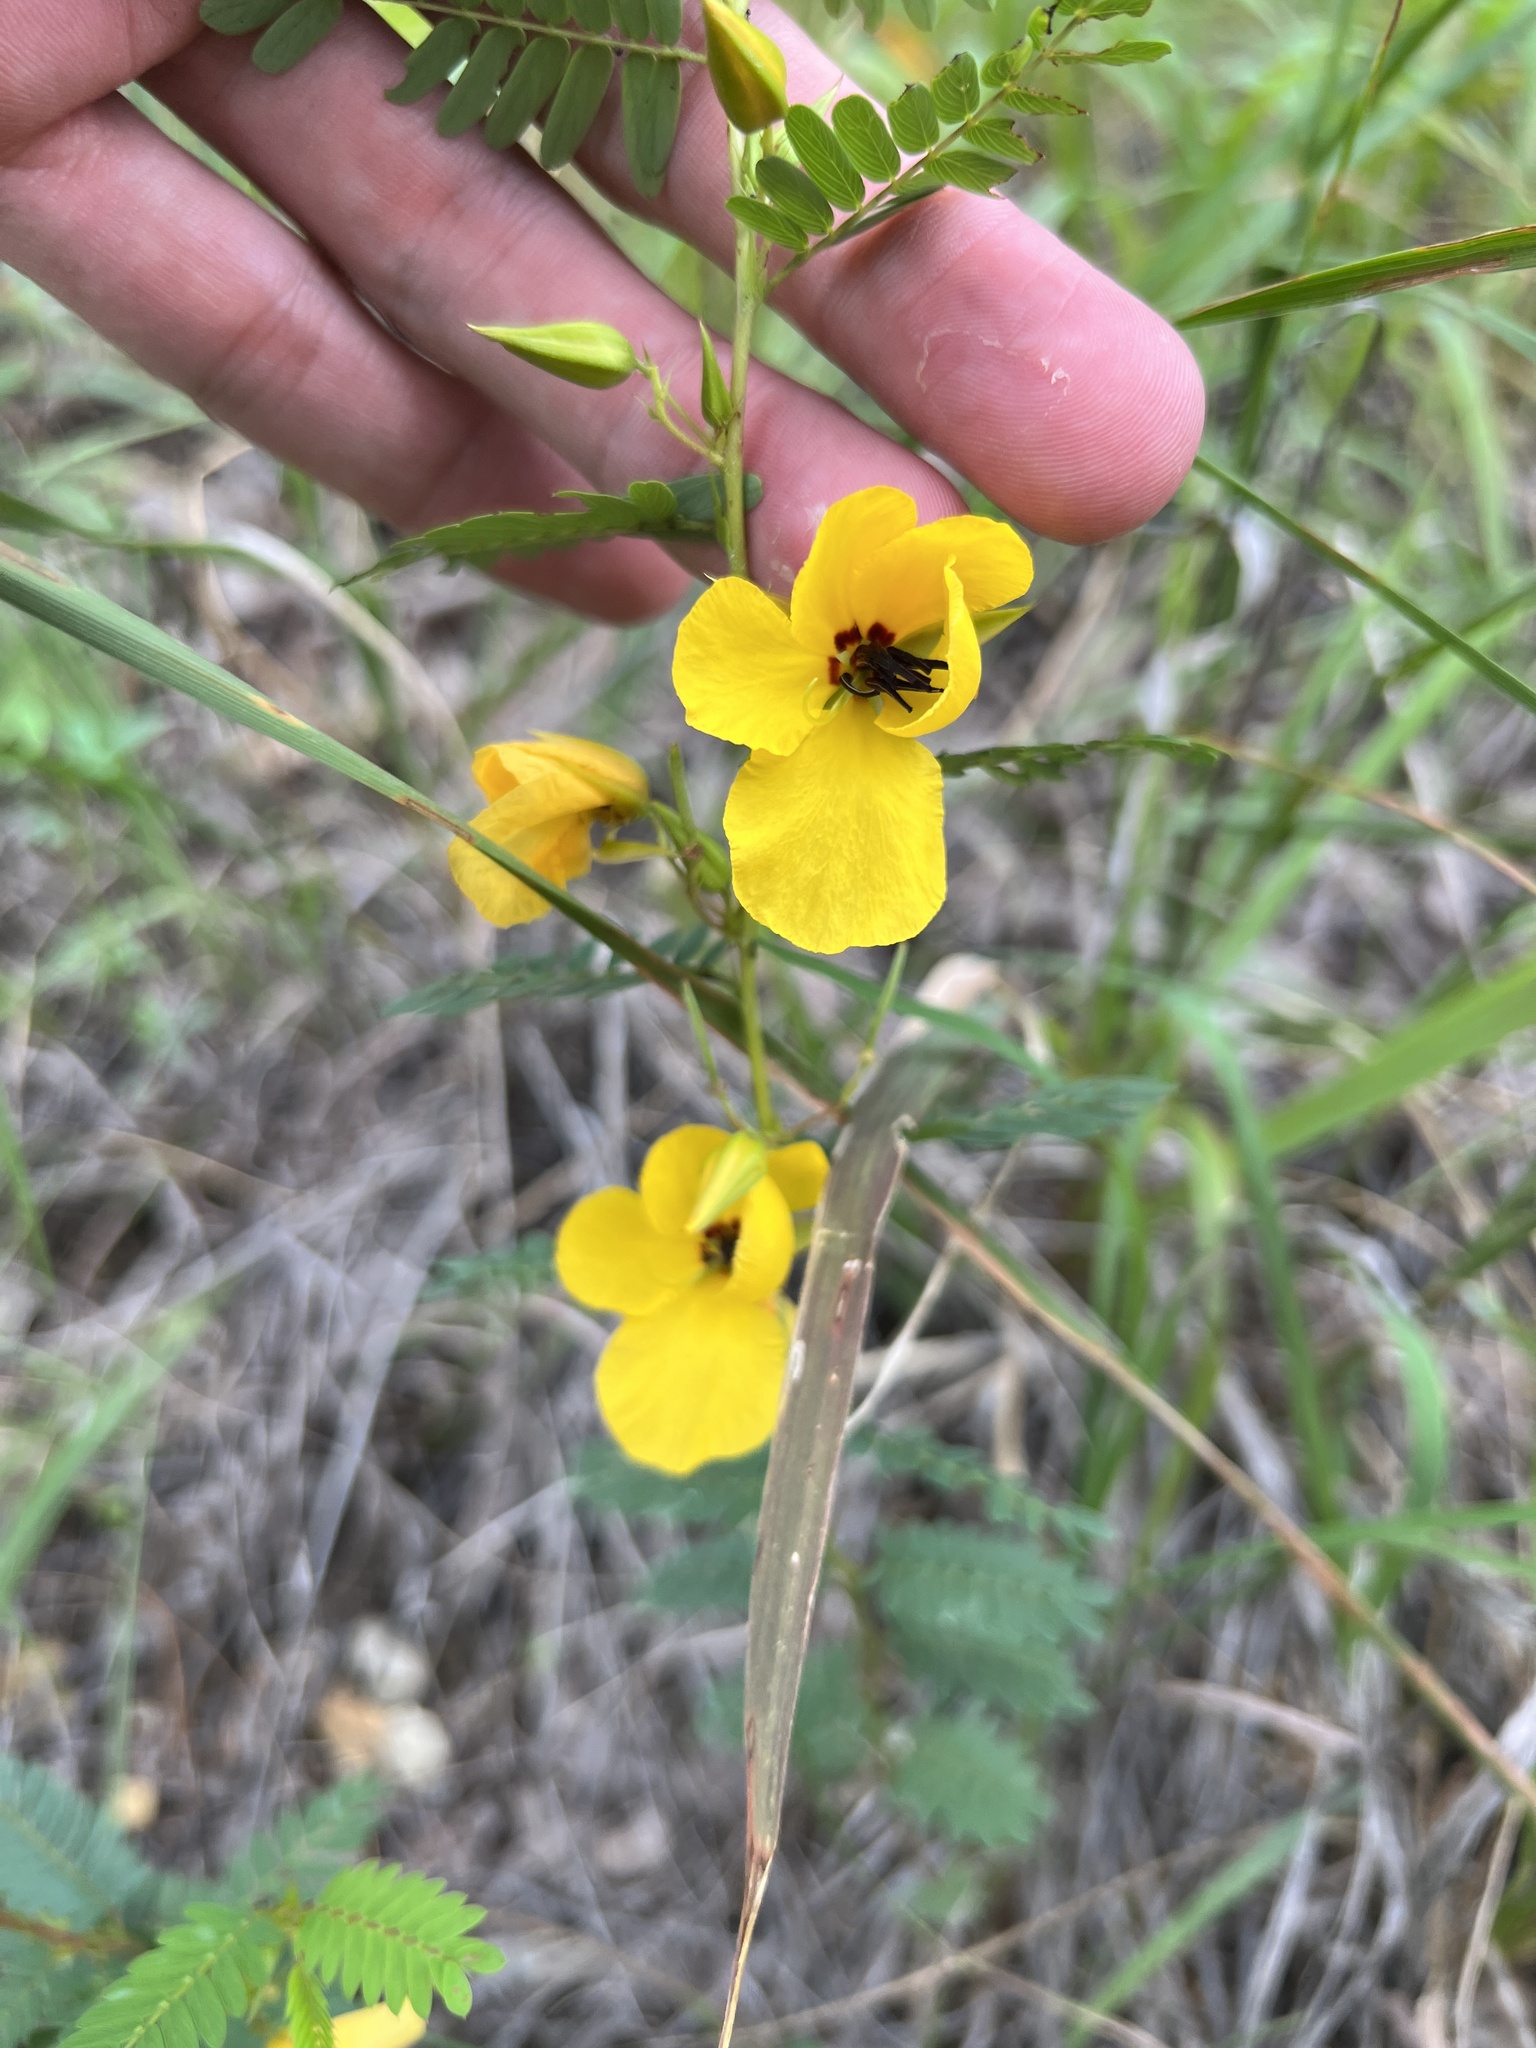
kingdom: Plantae
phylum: Tracheophyta
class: Magnoliopsida
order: Fabales
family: Fabaceae
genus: Chamaecrista
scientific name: Chamaecrista fasciculata
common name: Golden cassia
